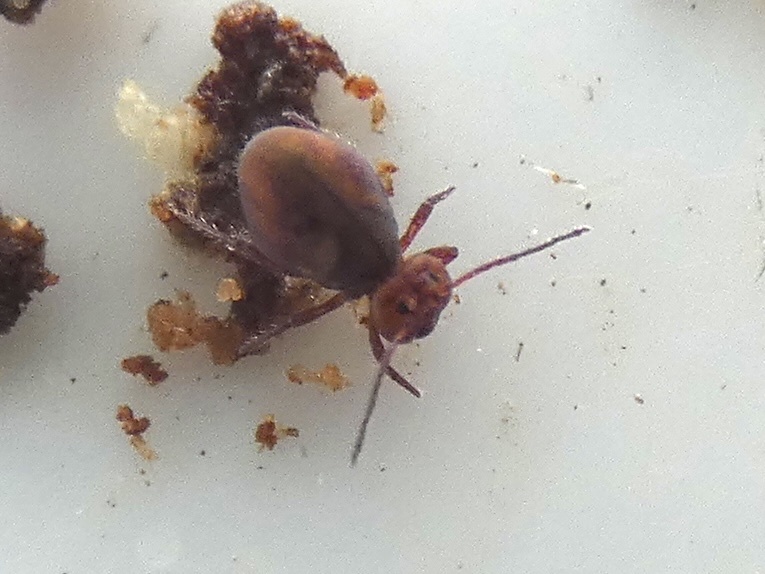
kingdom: Animalia
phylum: Arthropoda
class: Collembola
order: Symphypleona
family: Dicyrtomidae
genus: Dicyrtoma
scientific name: Dicyrtoma fusca
